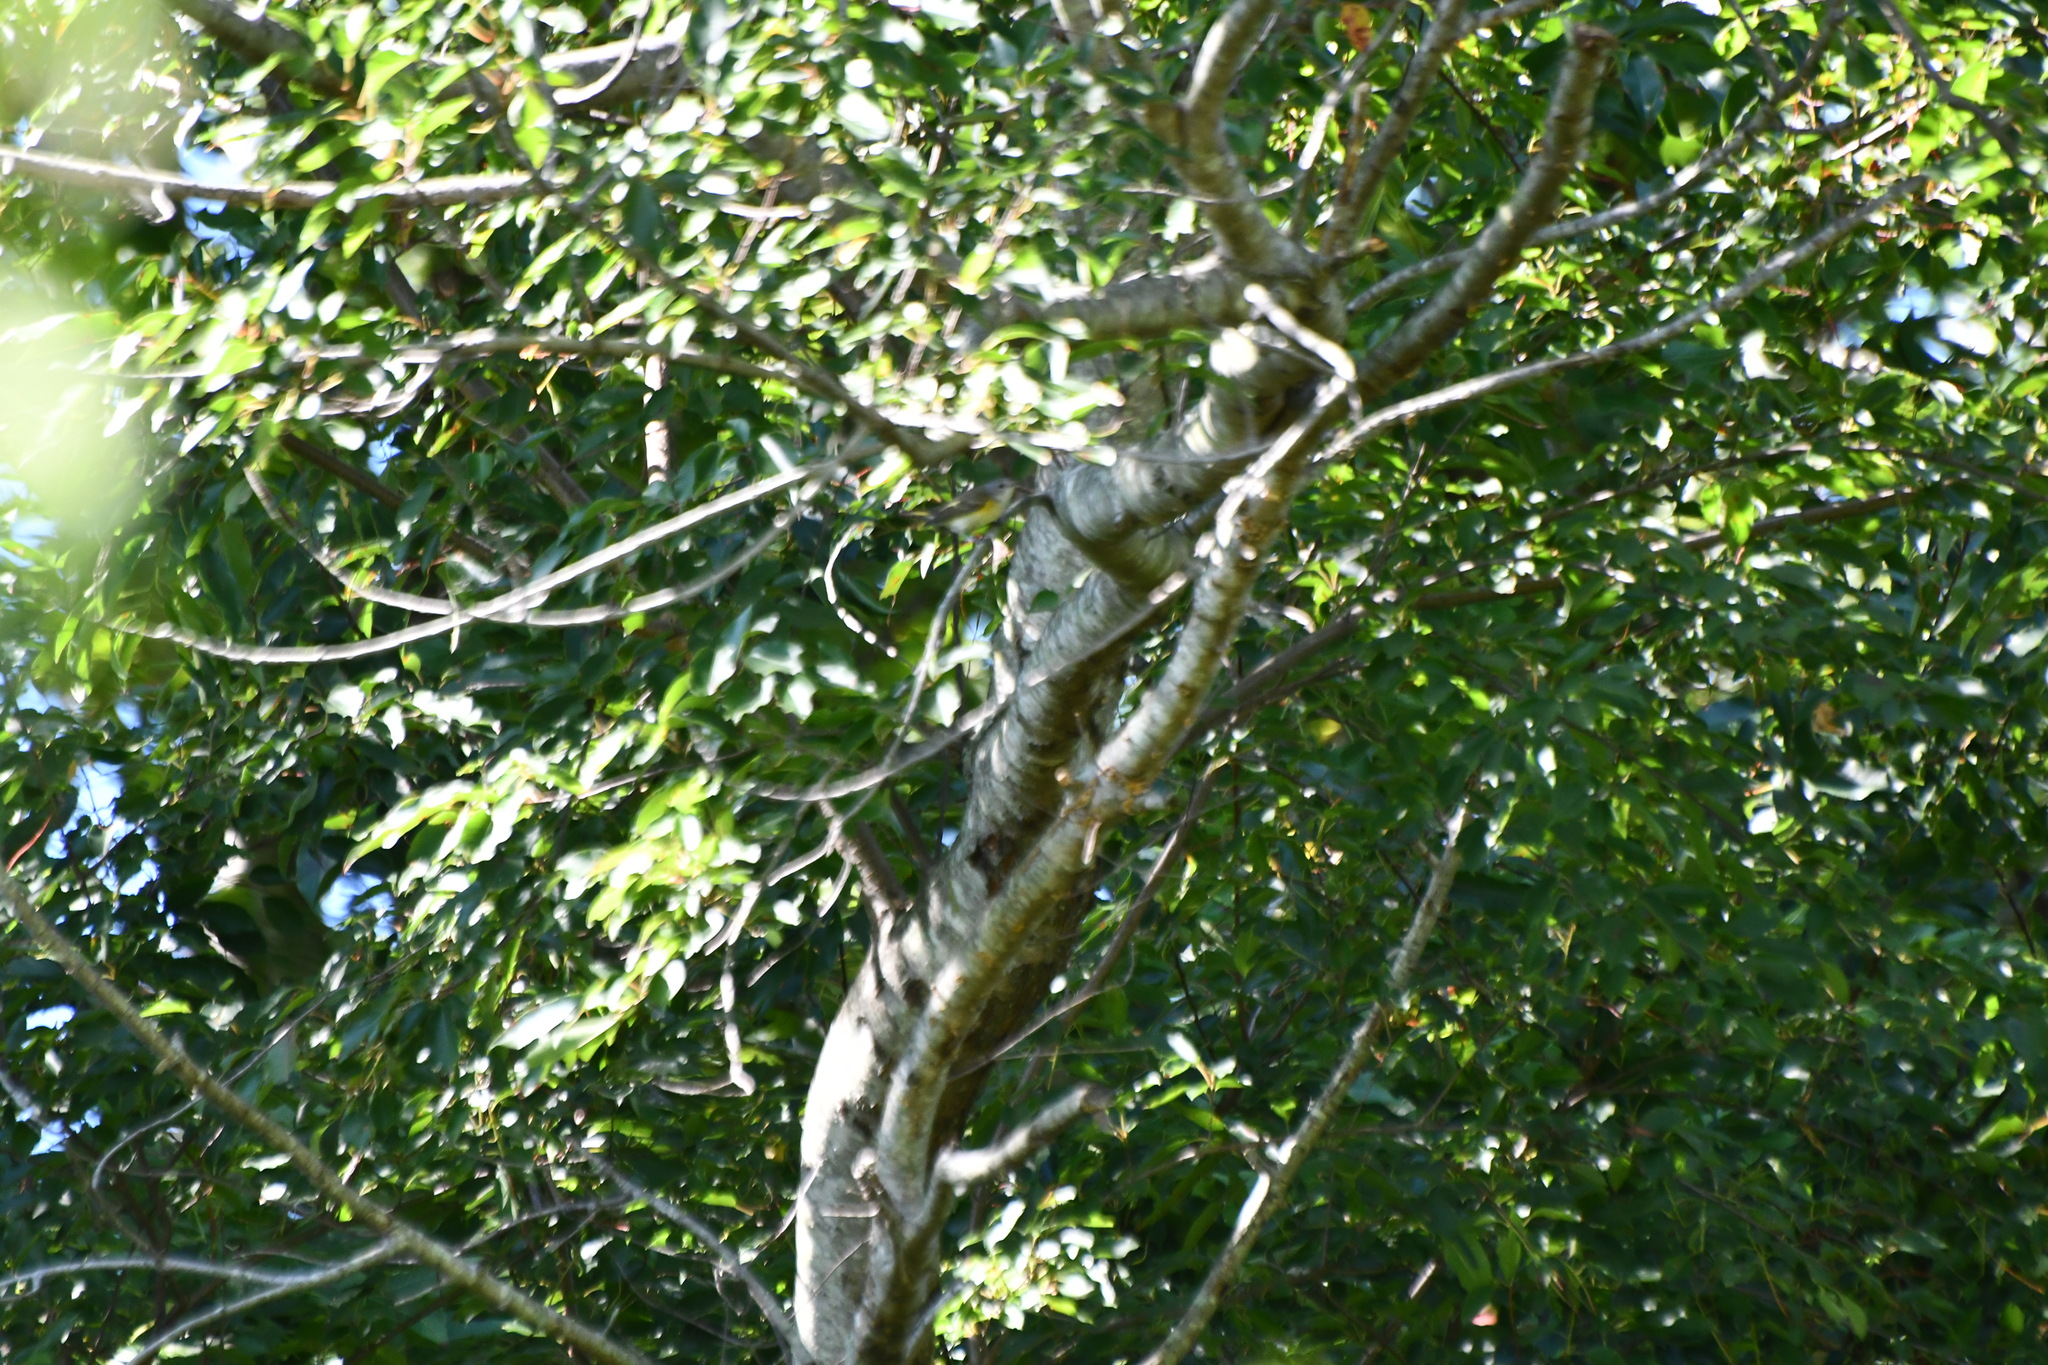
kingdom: Animalia
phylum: Chordata
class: Aves
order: Passeriformes
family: Parulidae
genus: Setophaga
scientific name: Setophaga ruticilla
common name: American redstart
